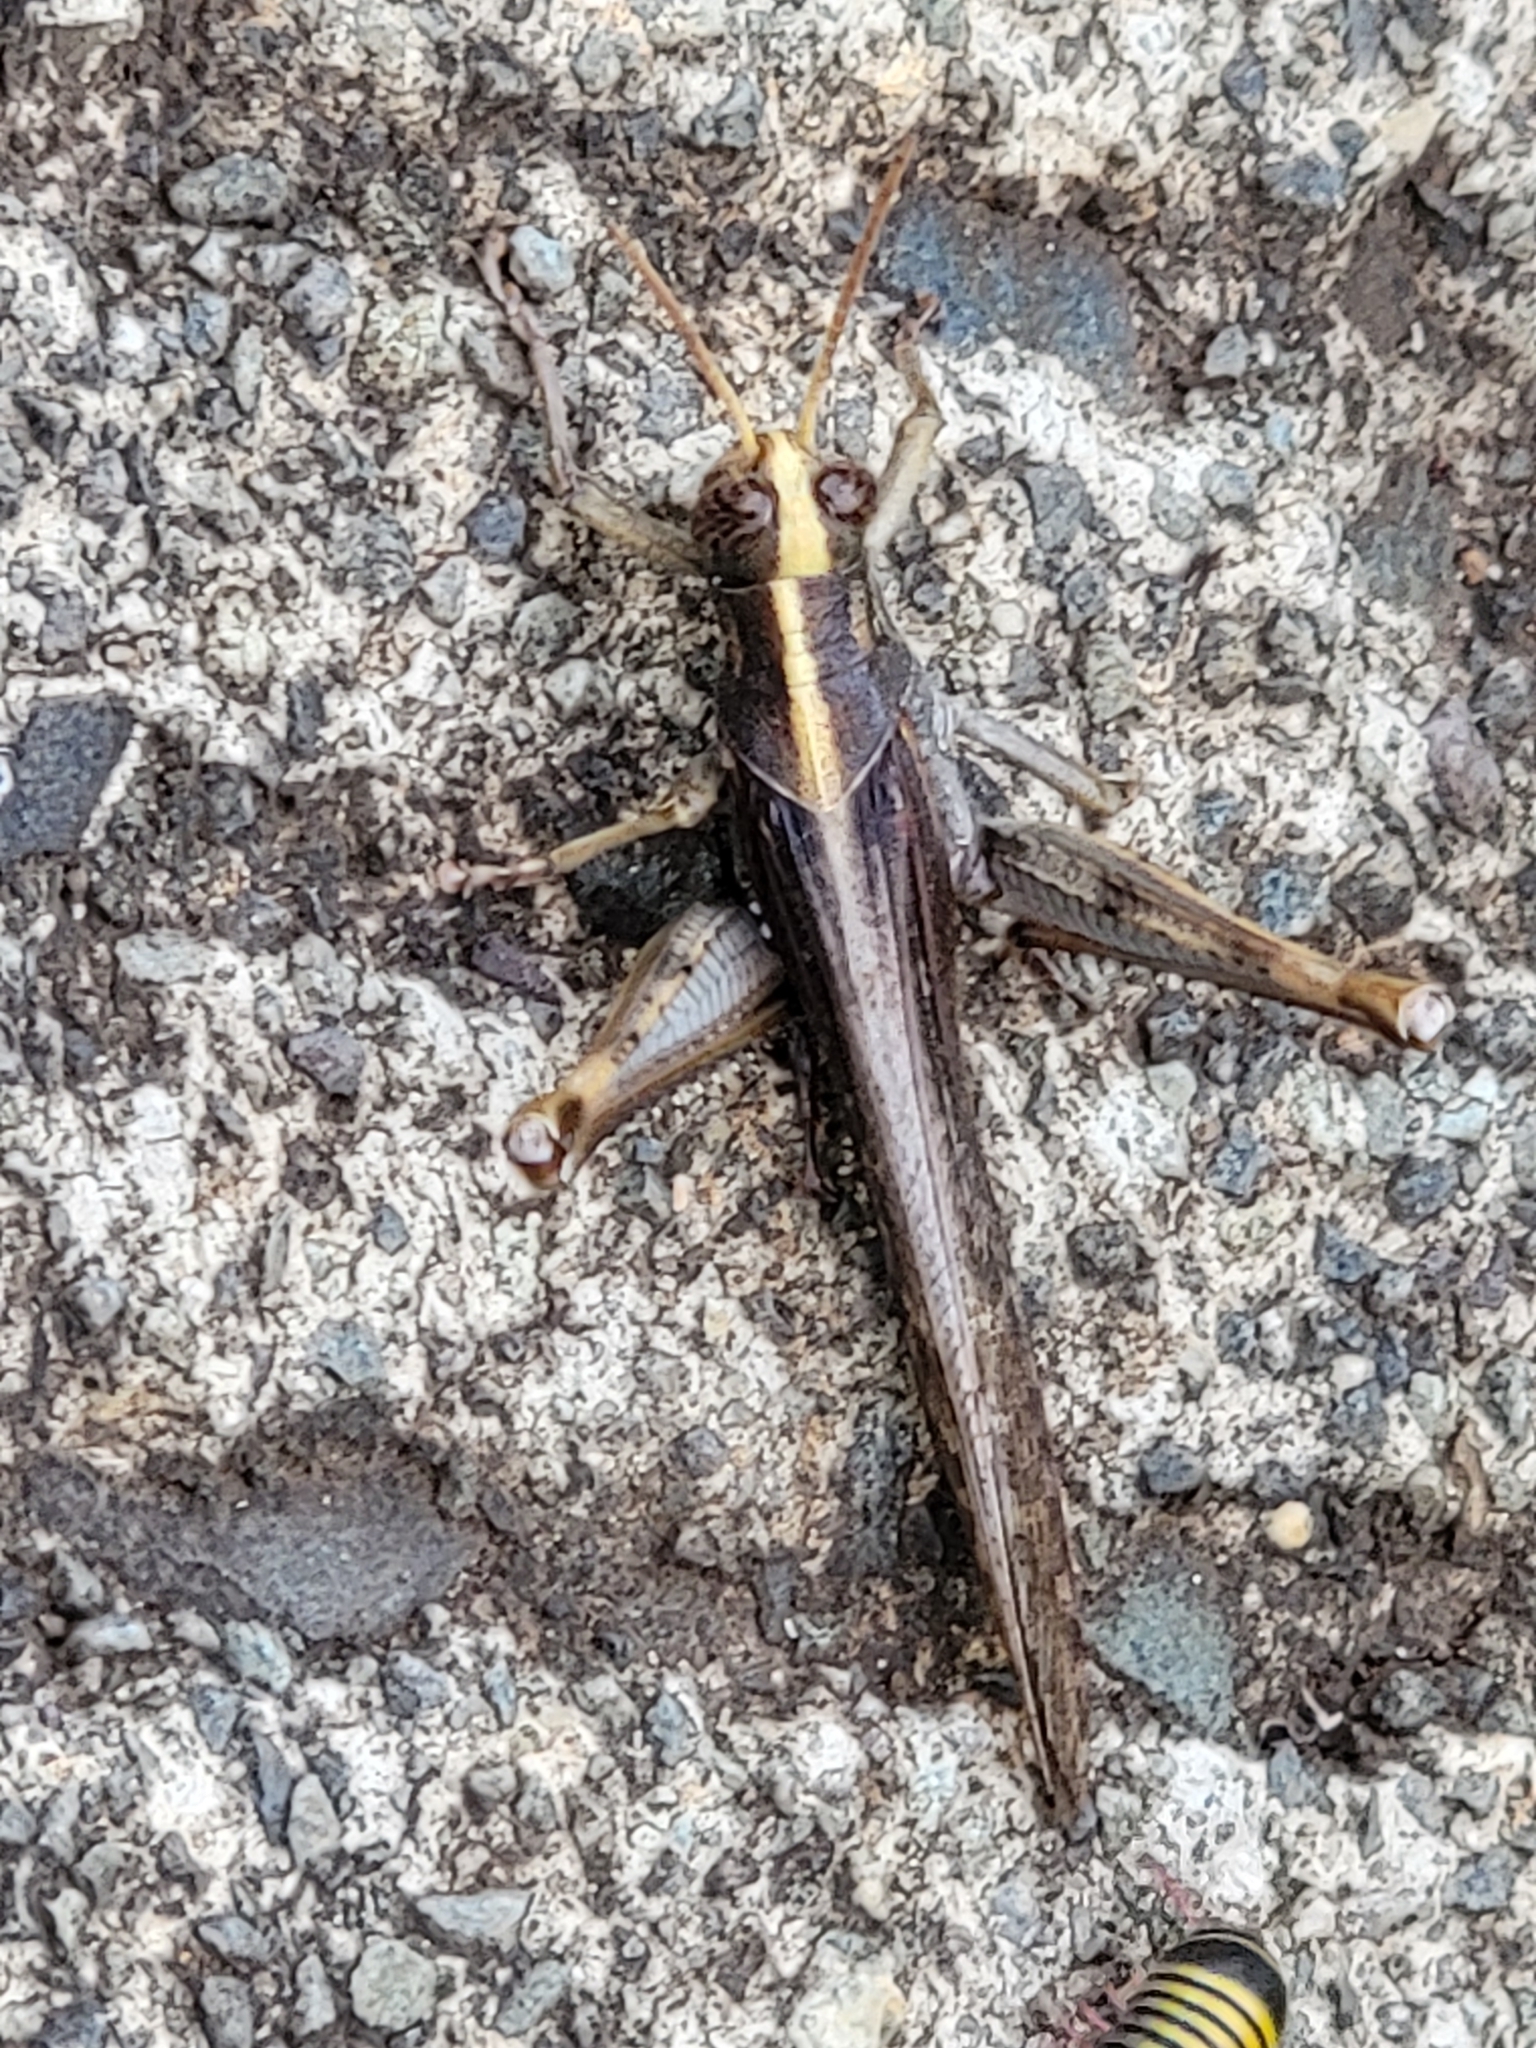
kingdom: Animalia
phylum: Arthropoda
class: Insecta
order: Orthoptera
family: Acrididae
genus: Schistocerca
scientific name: Schistocerca nitens
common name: Vagrant grasshopper
